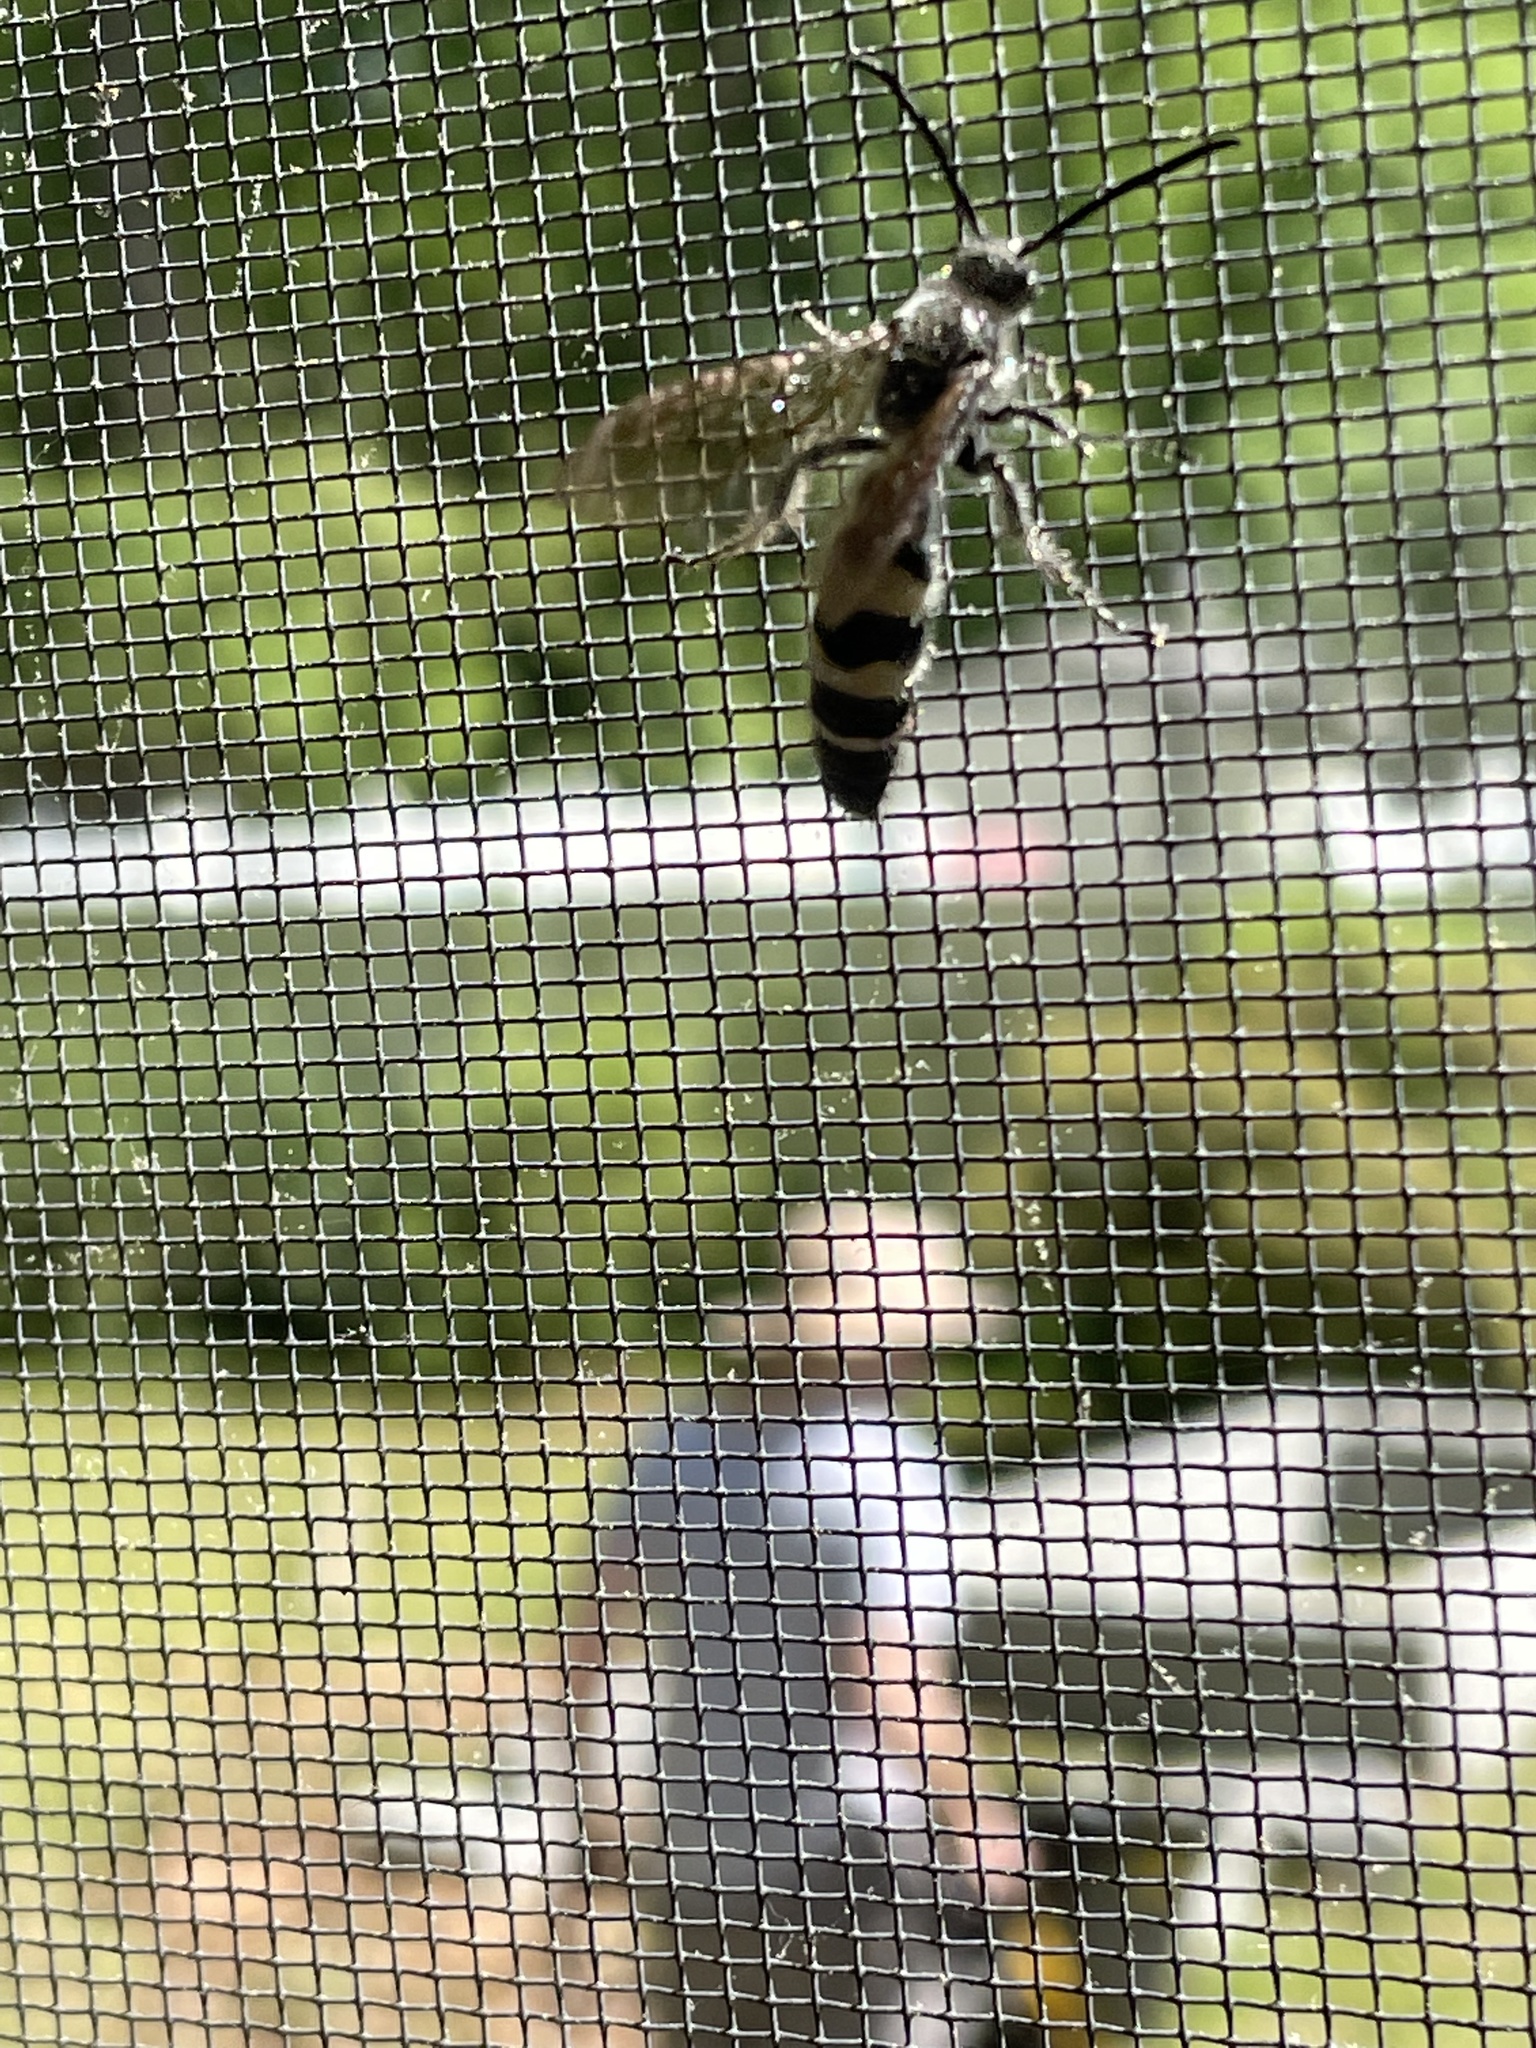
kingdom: Animalia
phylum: Arthropoda
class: Insecta
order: Hymenoptera
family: Scoliidae
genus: Dielis
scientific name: Dielis
